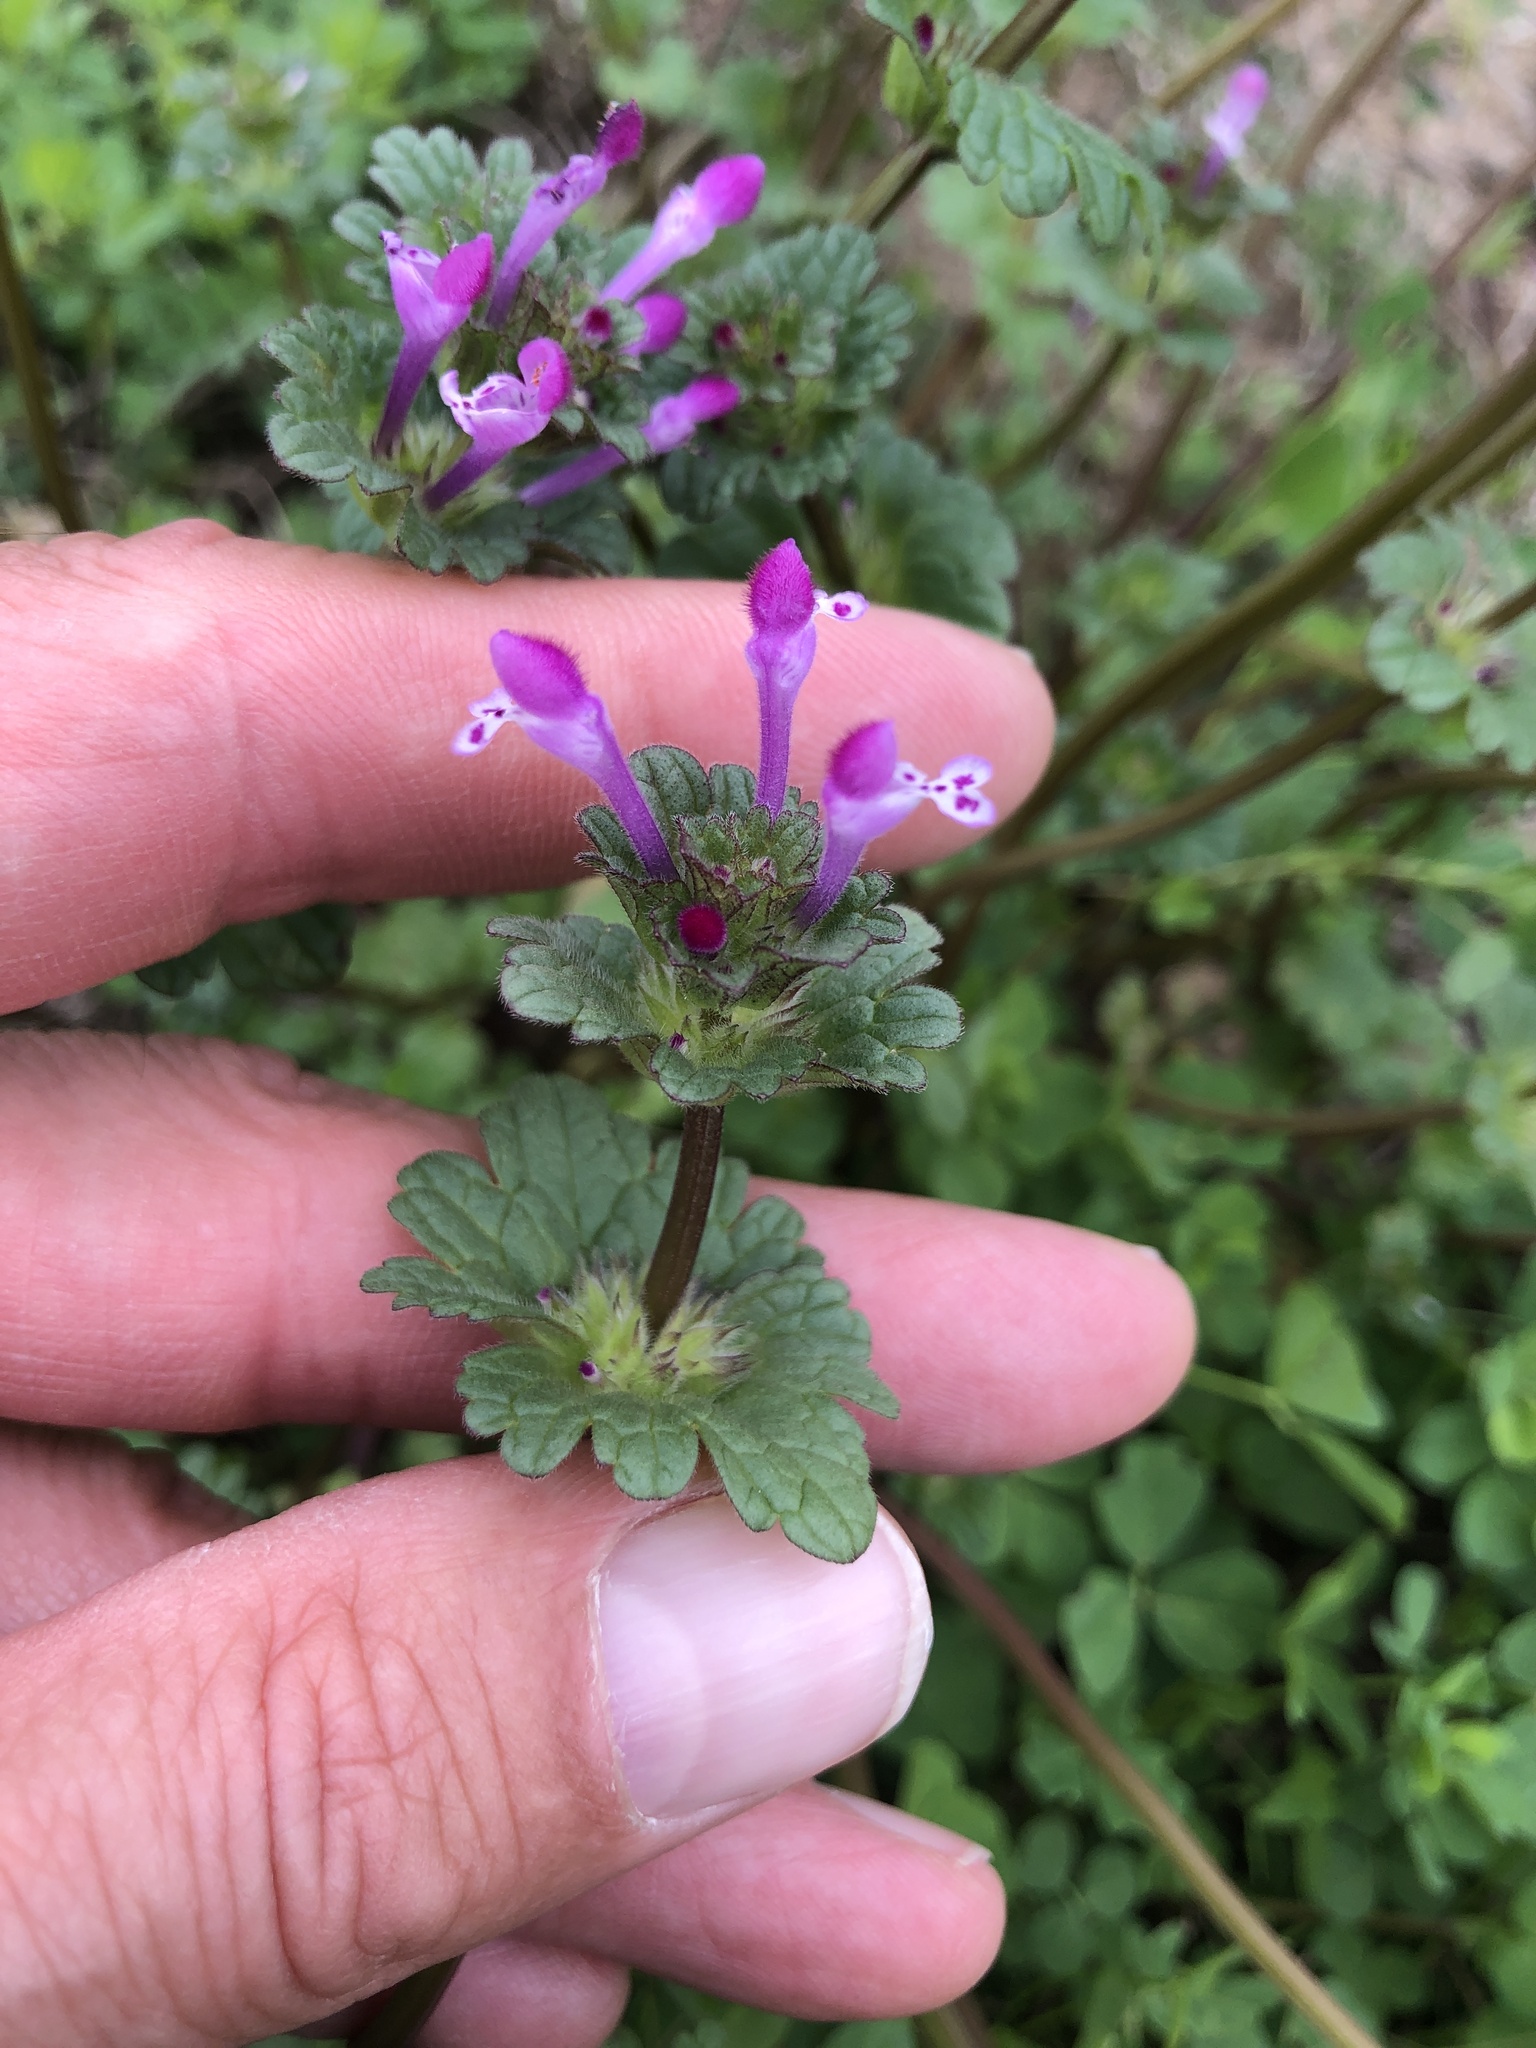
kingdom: Plantae
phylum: Tracheophyta
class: Magnoliopsida
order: Lamiales
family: Lamiaceae
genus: Lamium
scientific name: Lamium amplexicaule
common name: Henbit dead-nettle
